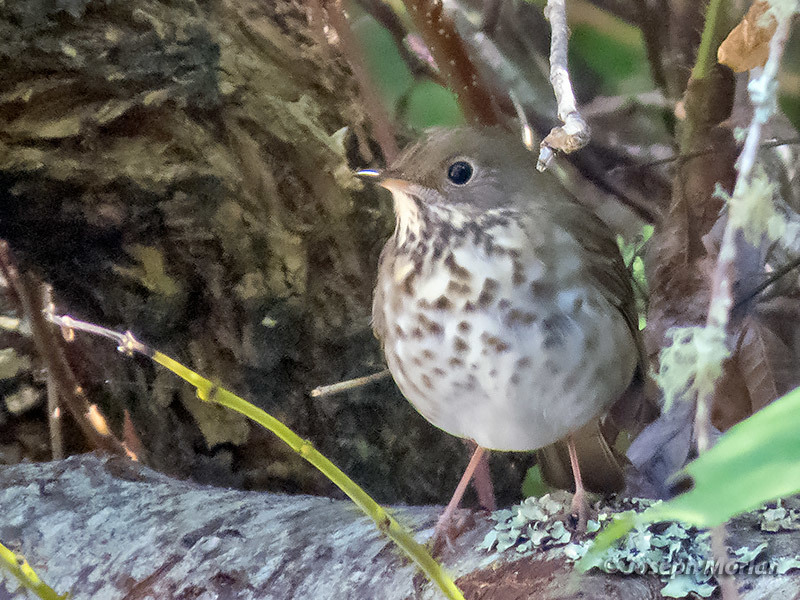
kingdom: Animalia
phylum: Chordata
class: Aves
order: Passeriformes
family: Turdidae
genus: Catharus
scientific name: Catharus guttatus
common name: Hermit thrush
